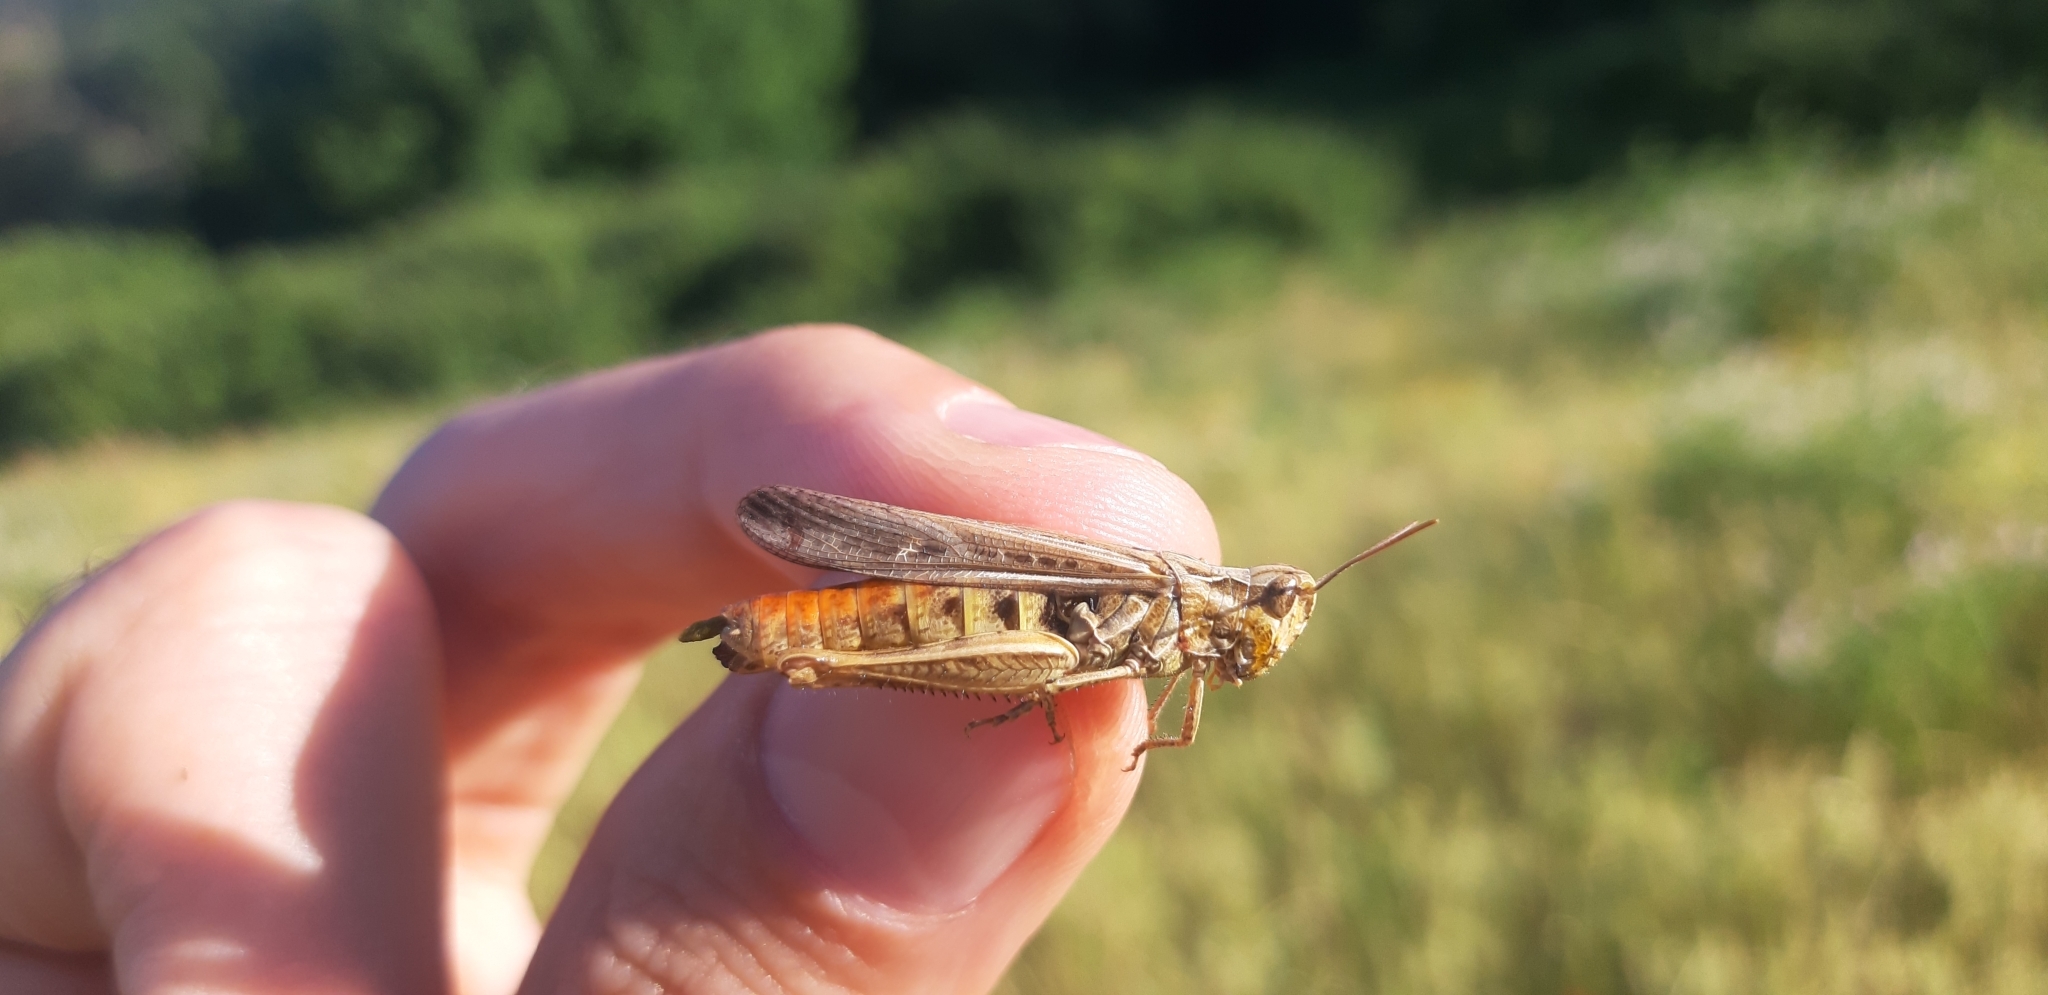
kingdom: Animalia
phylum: Arthropoda
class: Insecta
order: Orthoptera
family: Acrididae
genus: Chorthippus
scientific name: Chorthippus brunneus
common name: Field grasshopper
